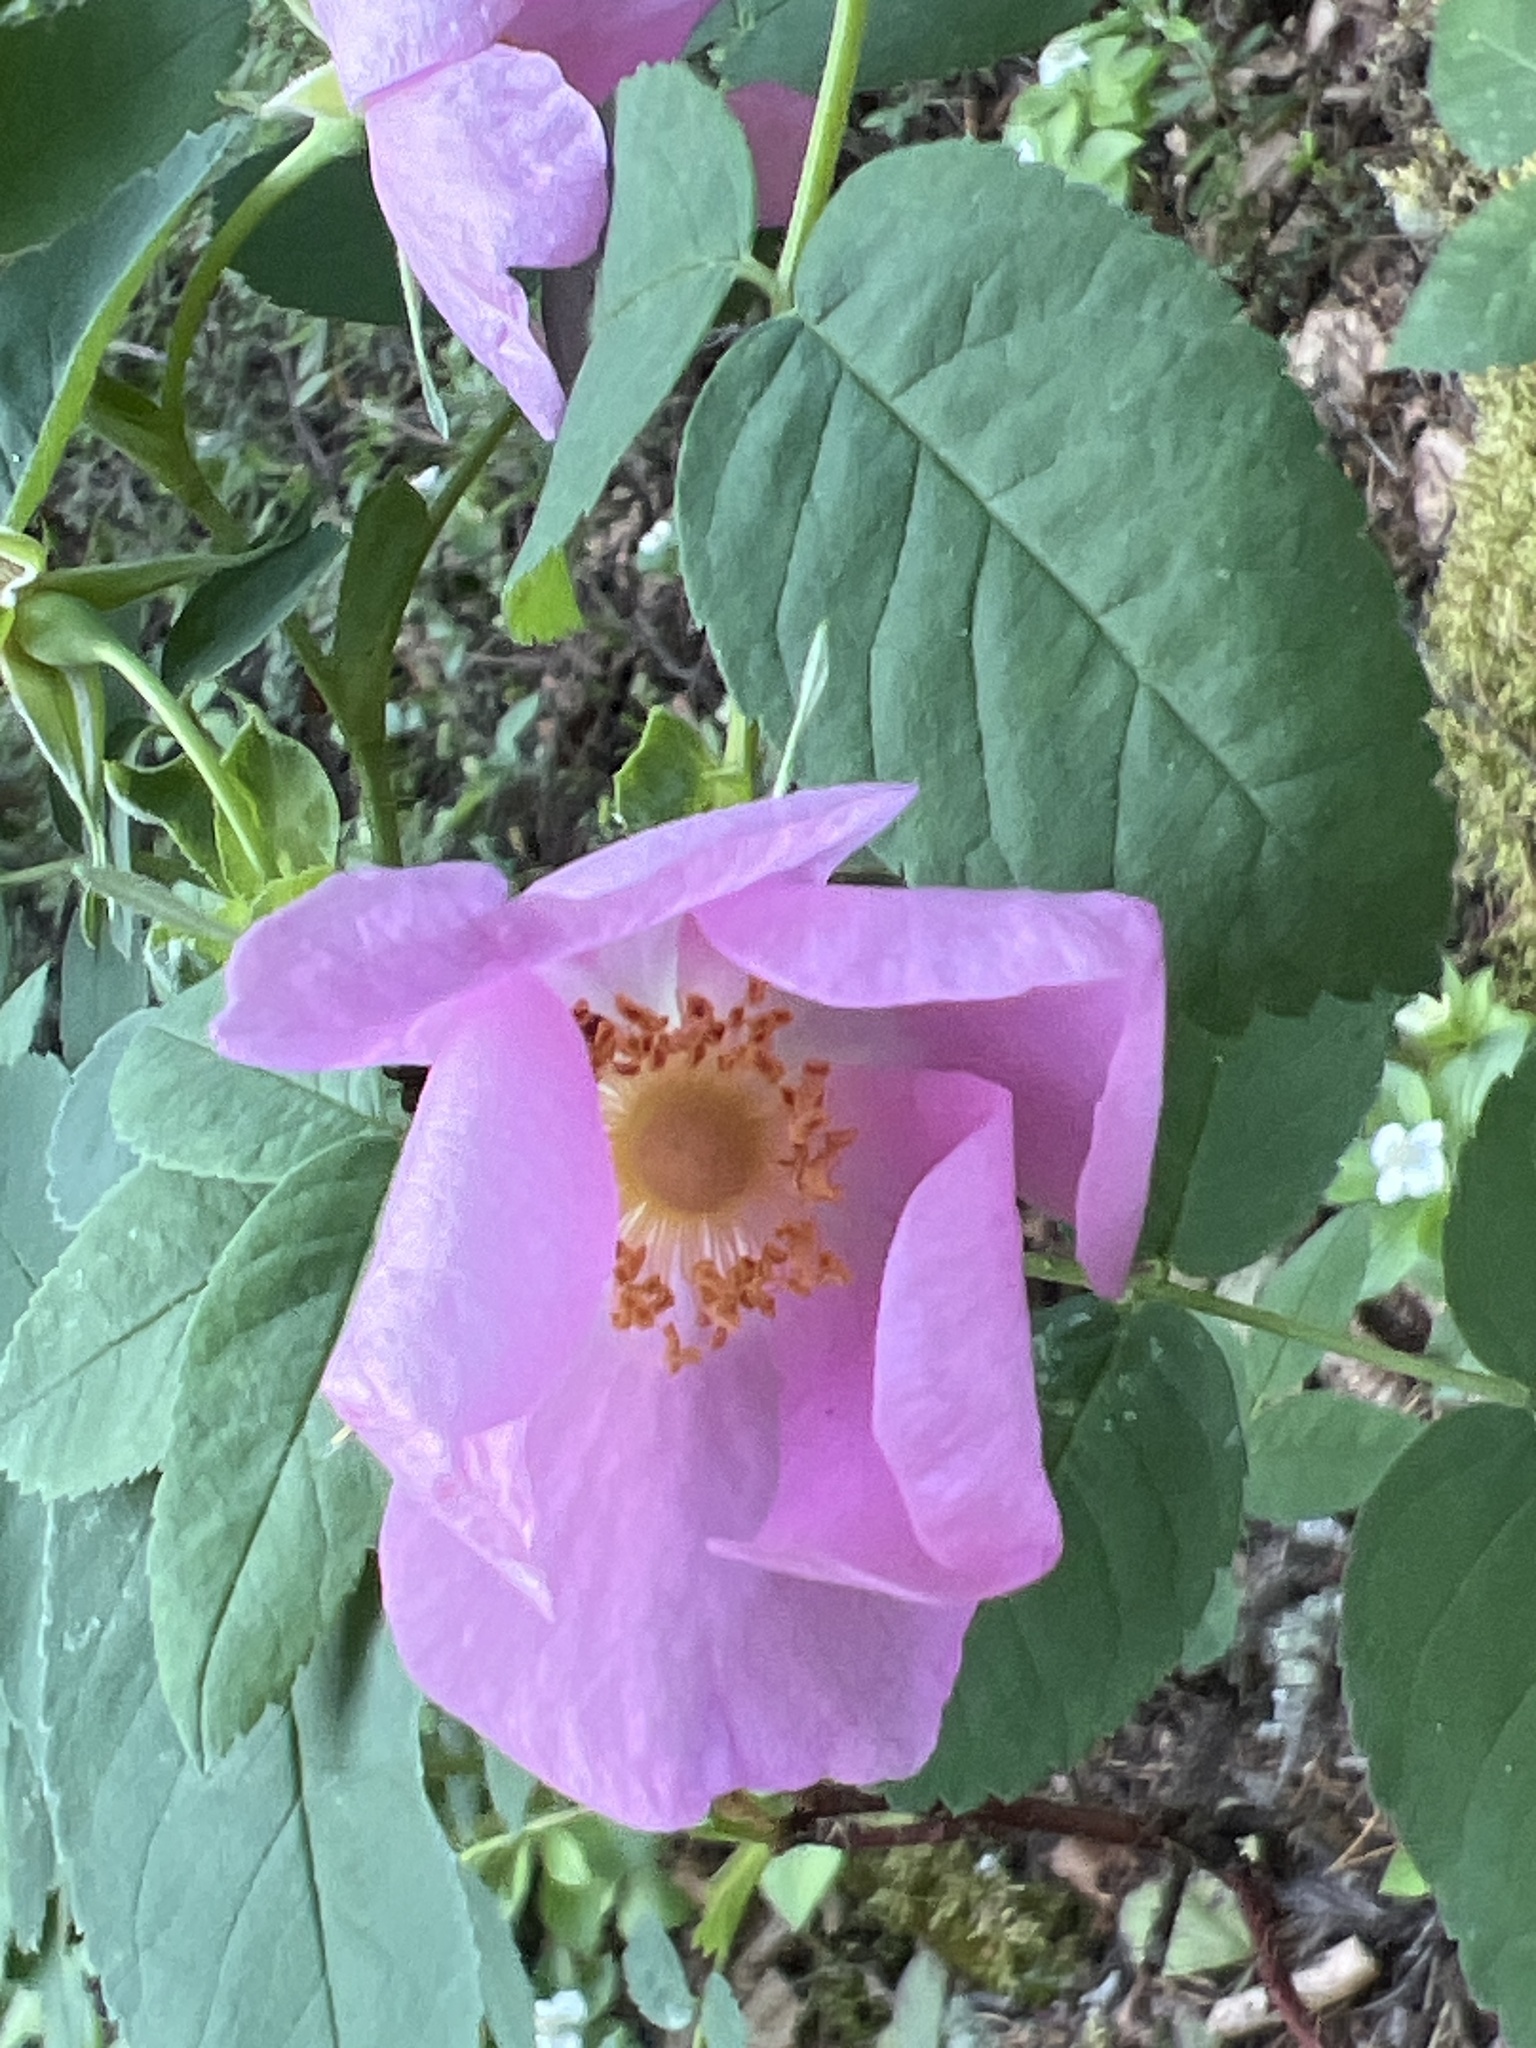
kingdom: Plantae
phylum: Tracheophyta
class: Magnoliopsida
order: Rosales
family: Rosaceae
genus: Rosa
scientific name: Rosa acicularis
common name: Prickly rose
